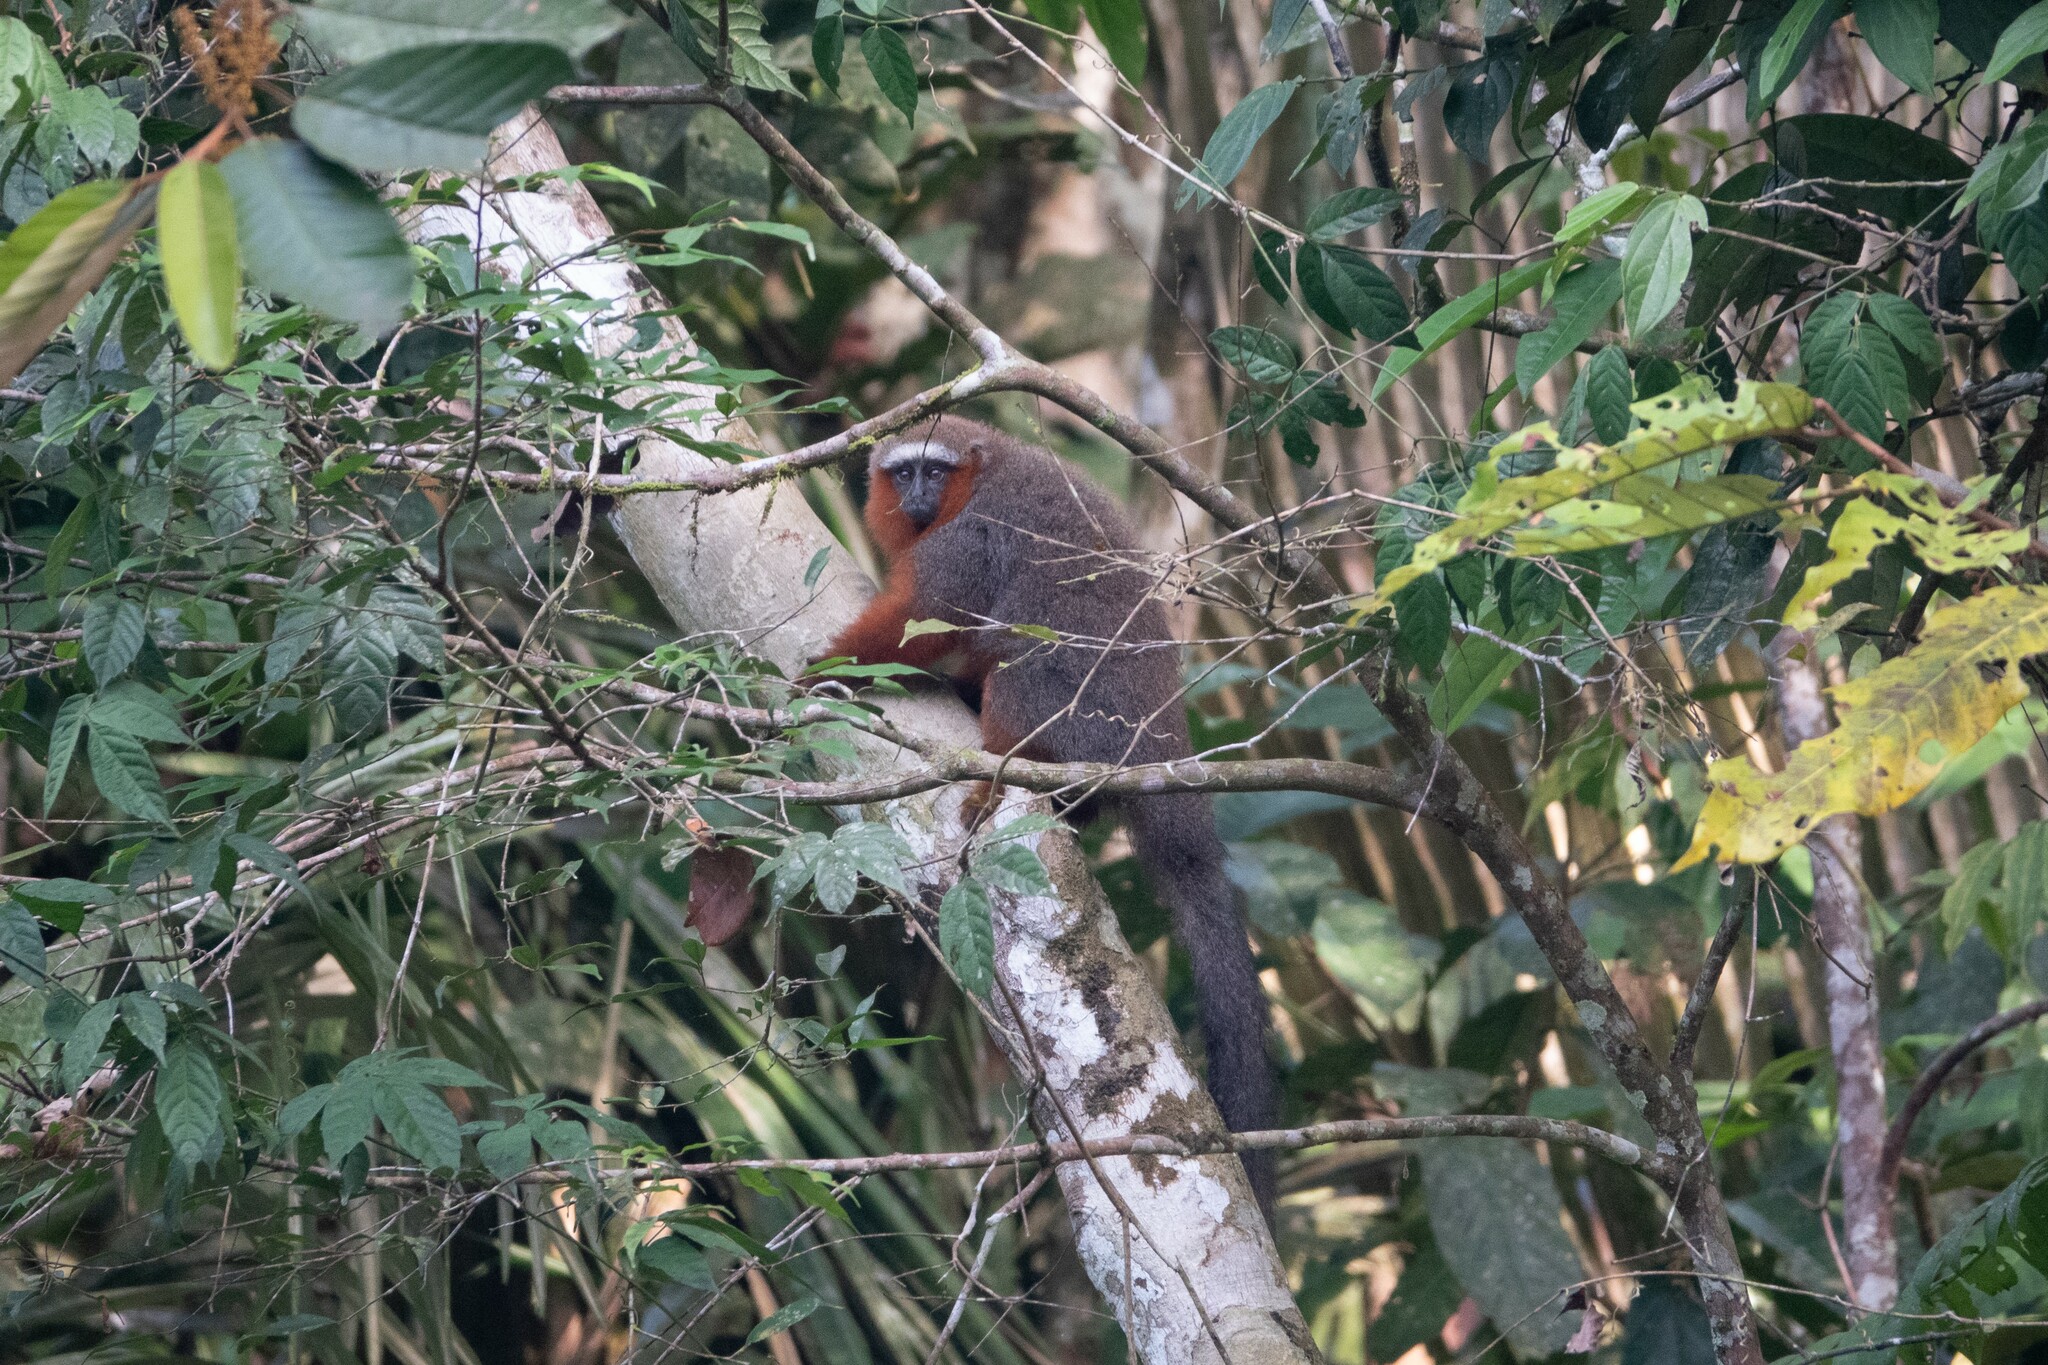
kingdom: Animalia
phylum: Chordata
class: Mammalia
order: Primates
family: Pitheciidae
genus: Plecturocebus
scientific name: Plecturocebus discolor
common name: Red-crowned titi
